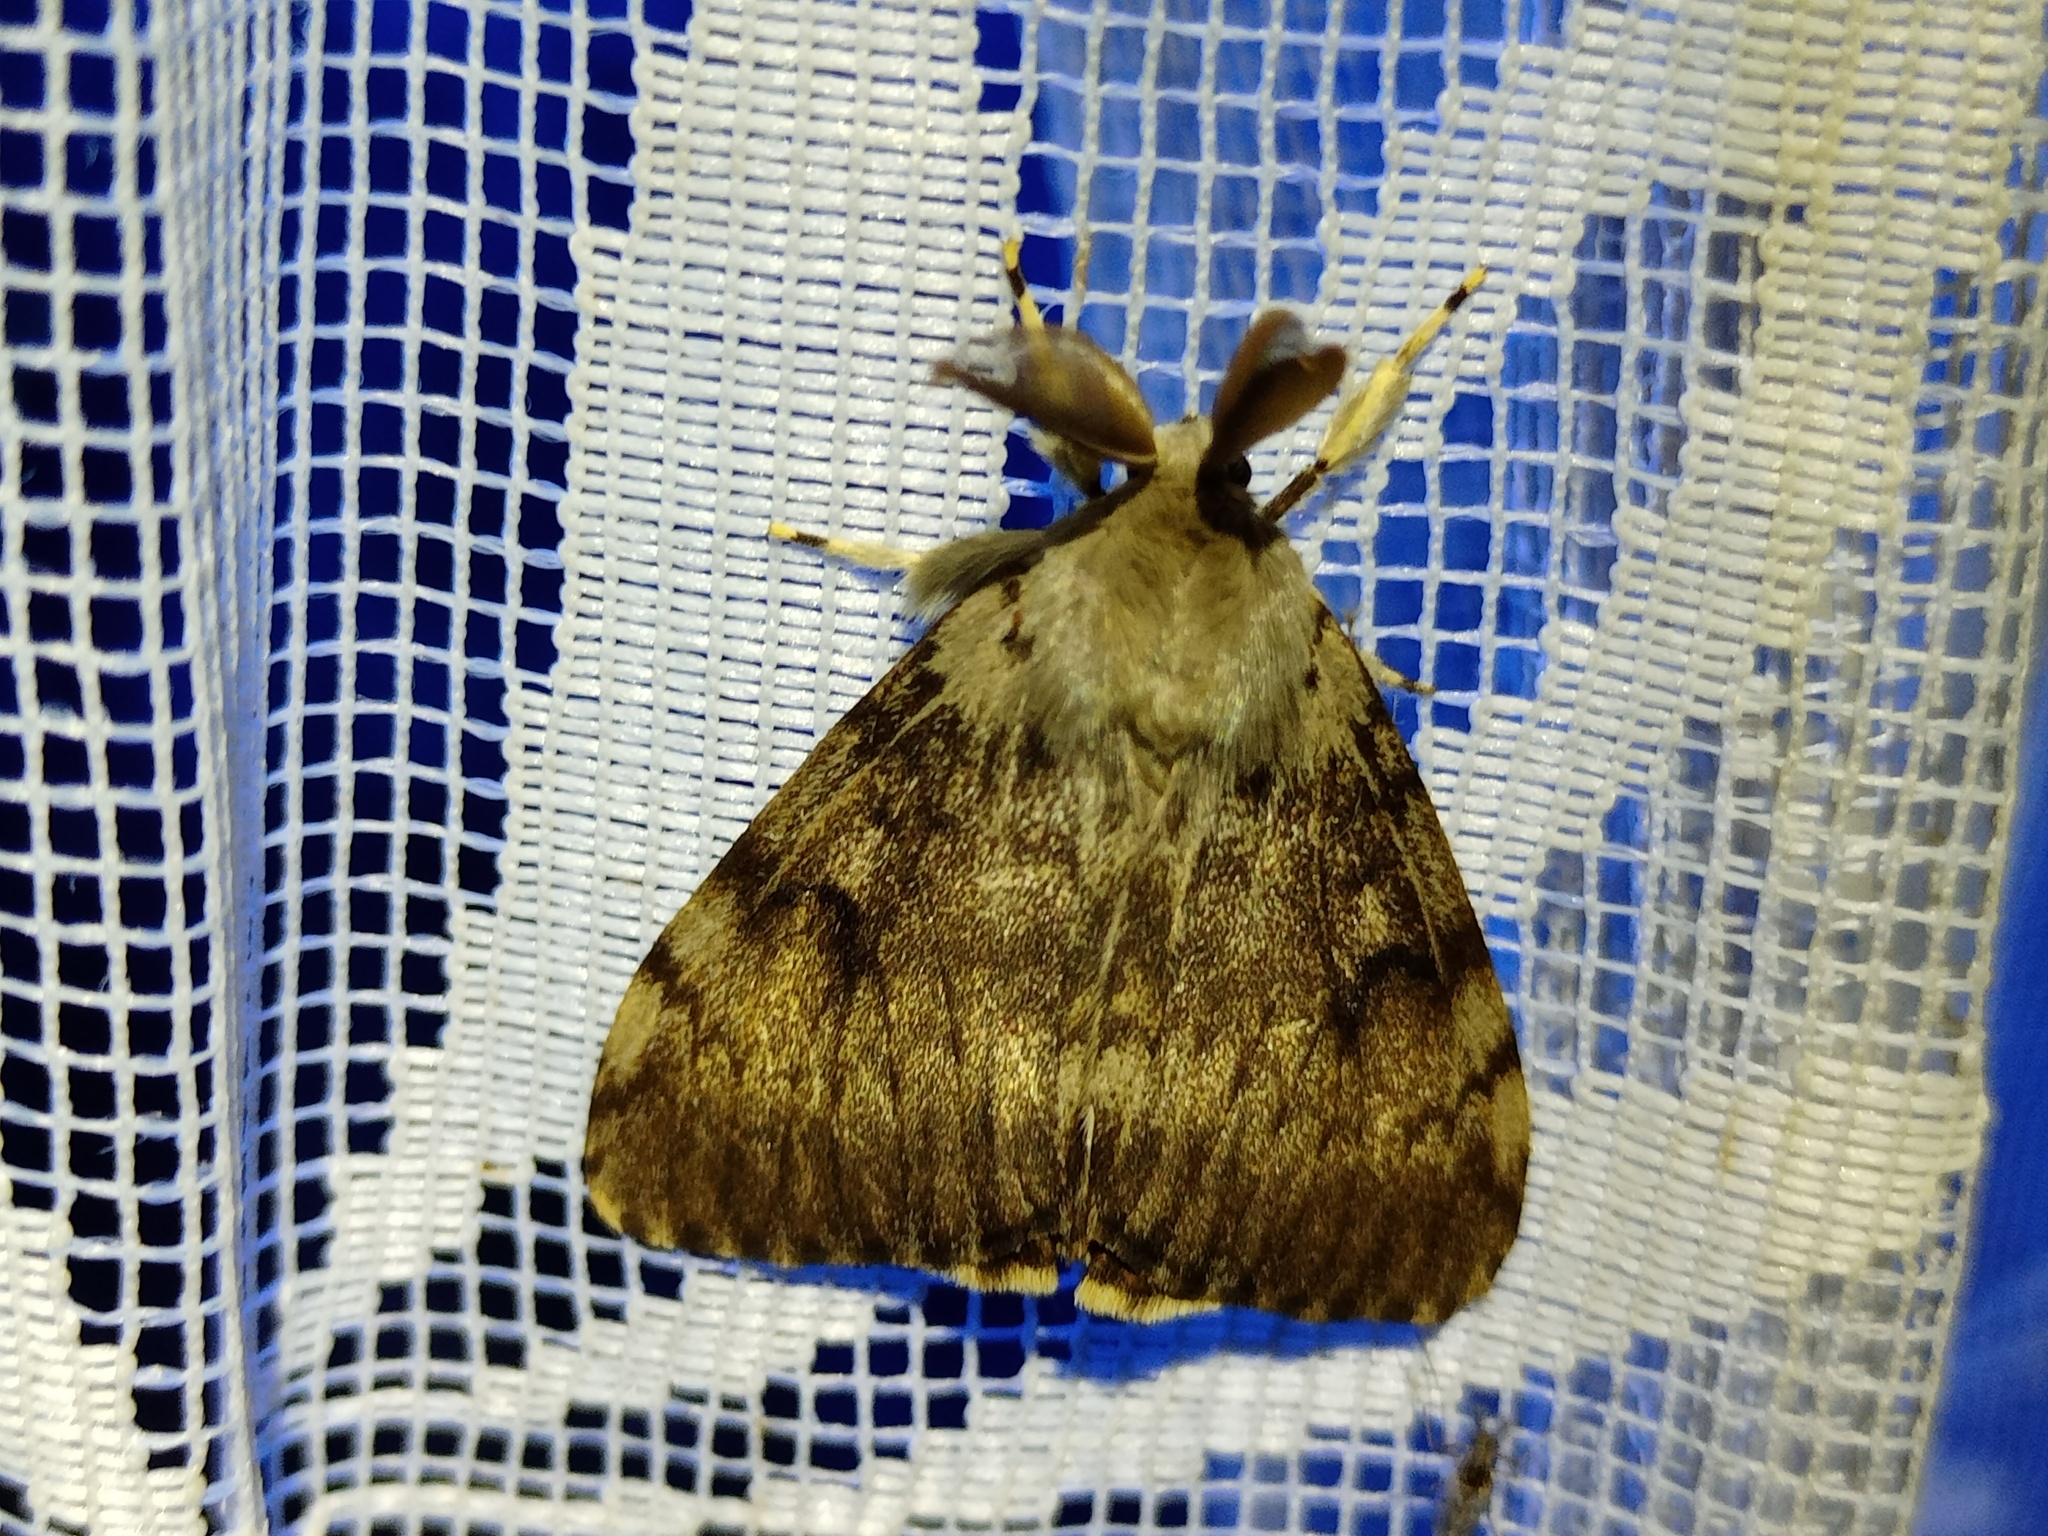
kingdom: Animalia
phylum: Arthropoda
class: Insecta
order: Lepidoptera
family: Erebidae
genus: Lymantria
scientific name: Lymantria dispar
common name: Gypsy moth
